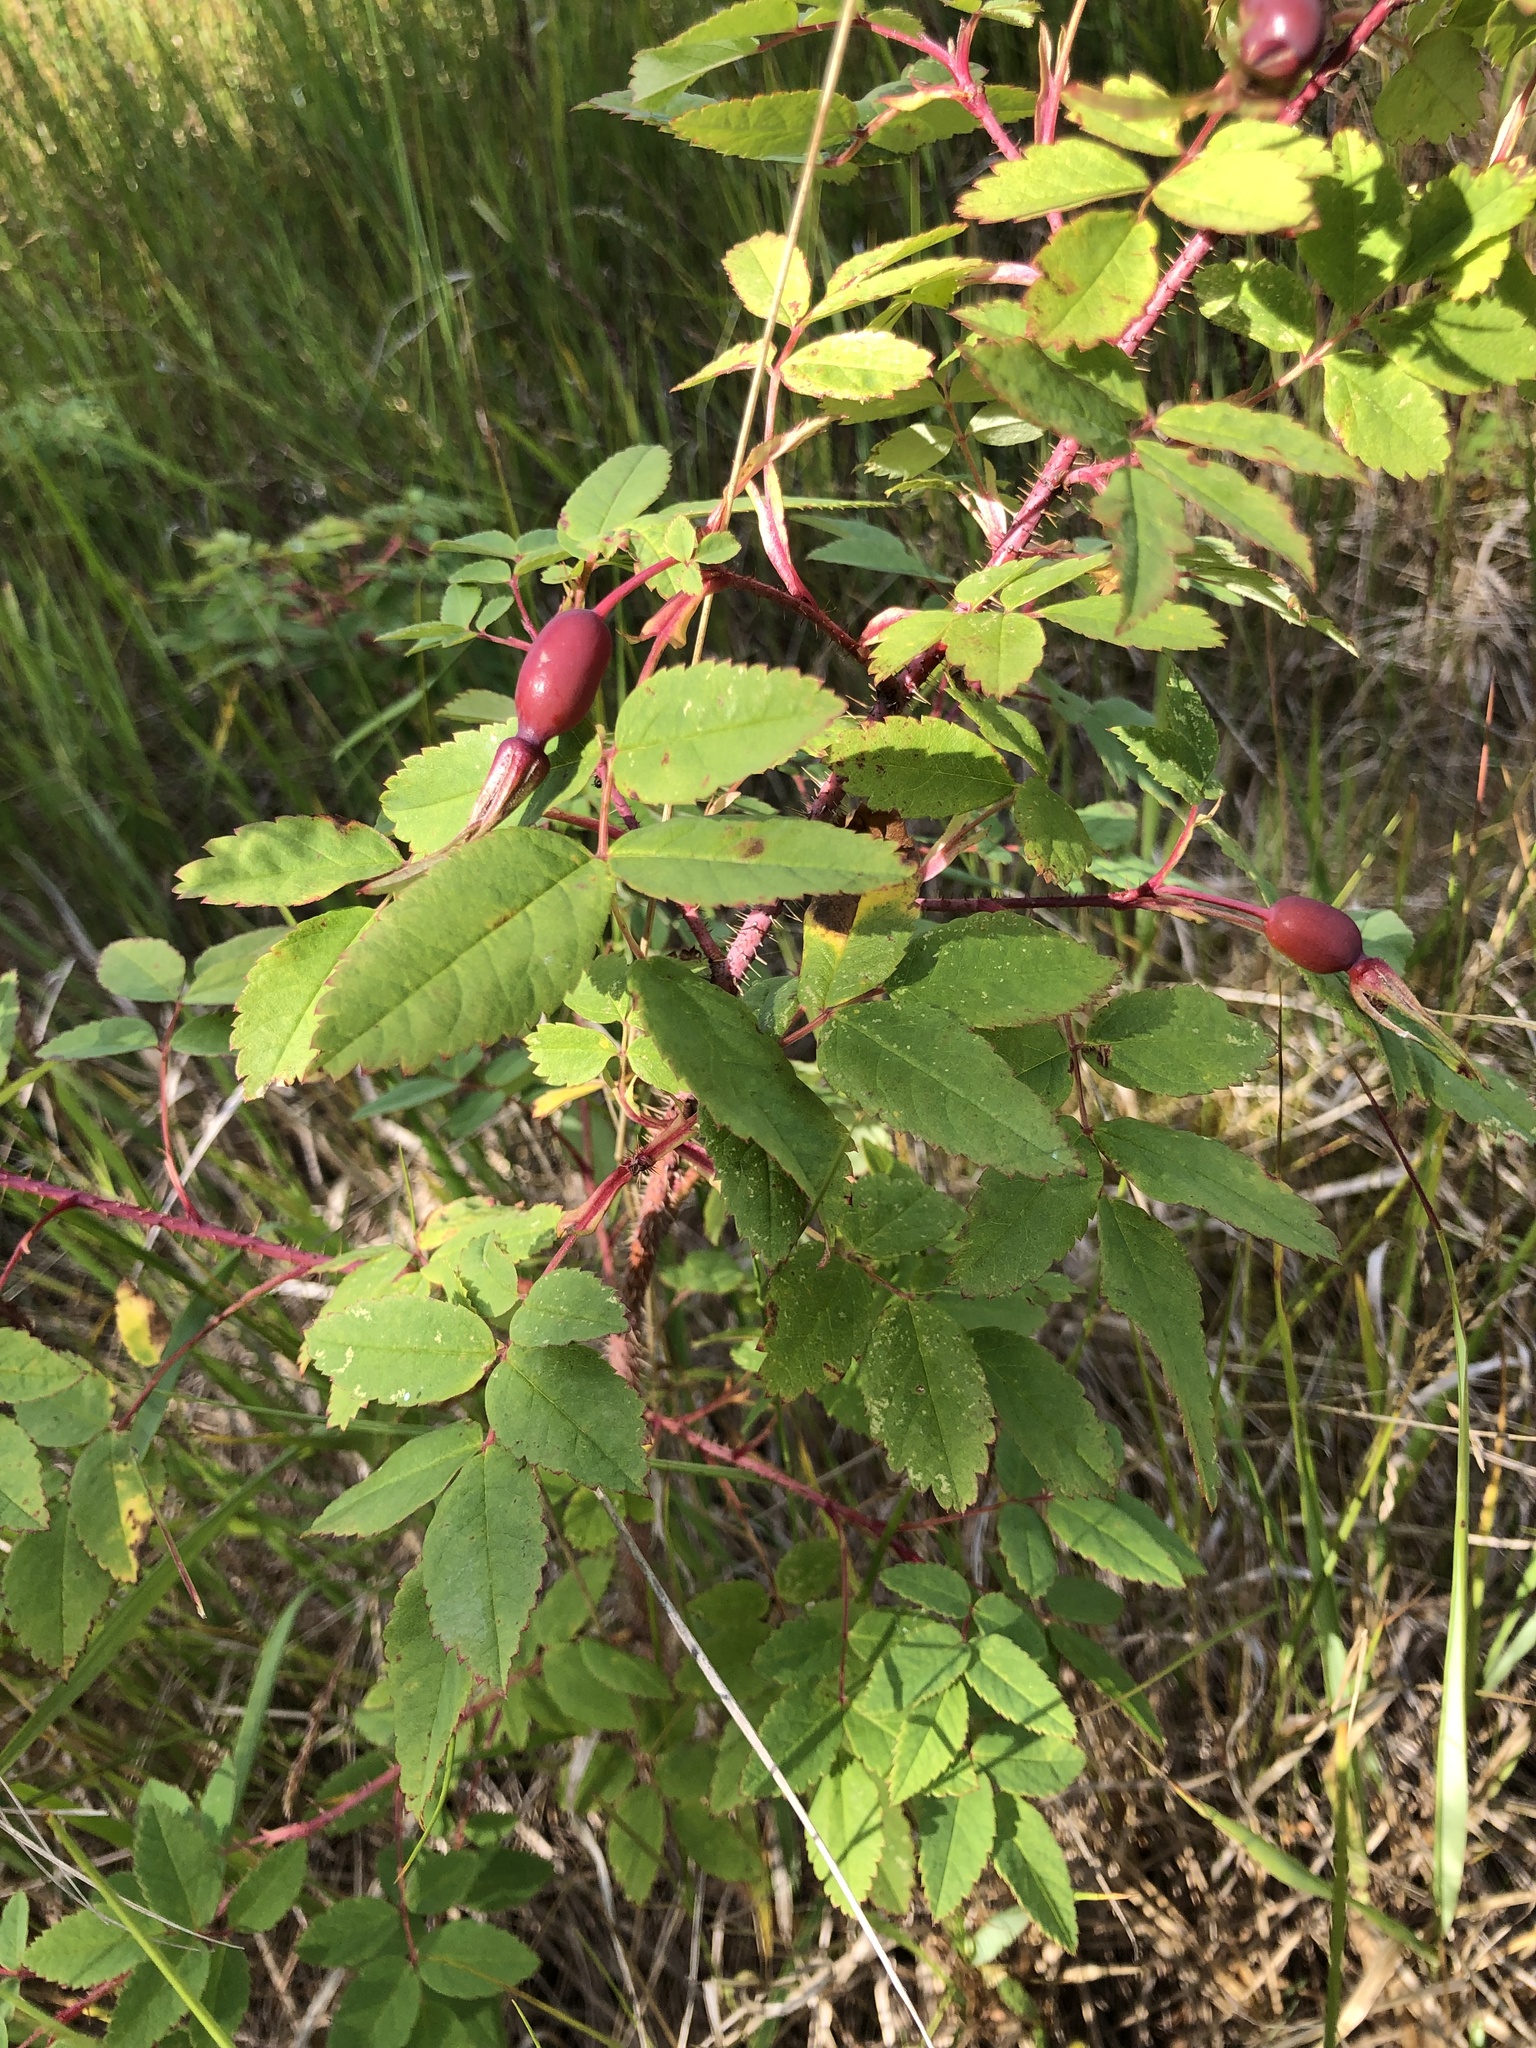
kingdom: Plantae
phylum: Tracheophyta
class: Magnoliopsida
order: Rosales
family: Rosaceae
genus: Rosa
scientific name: Rosa acicularis
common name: Prickly rose
